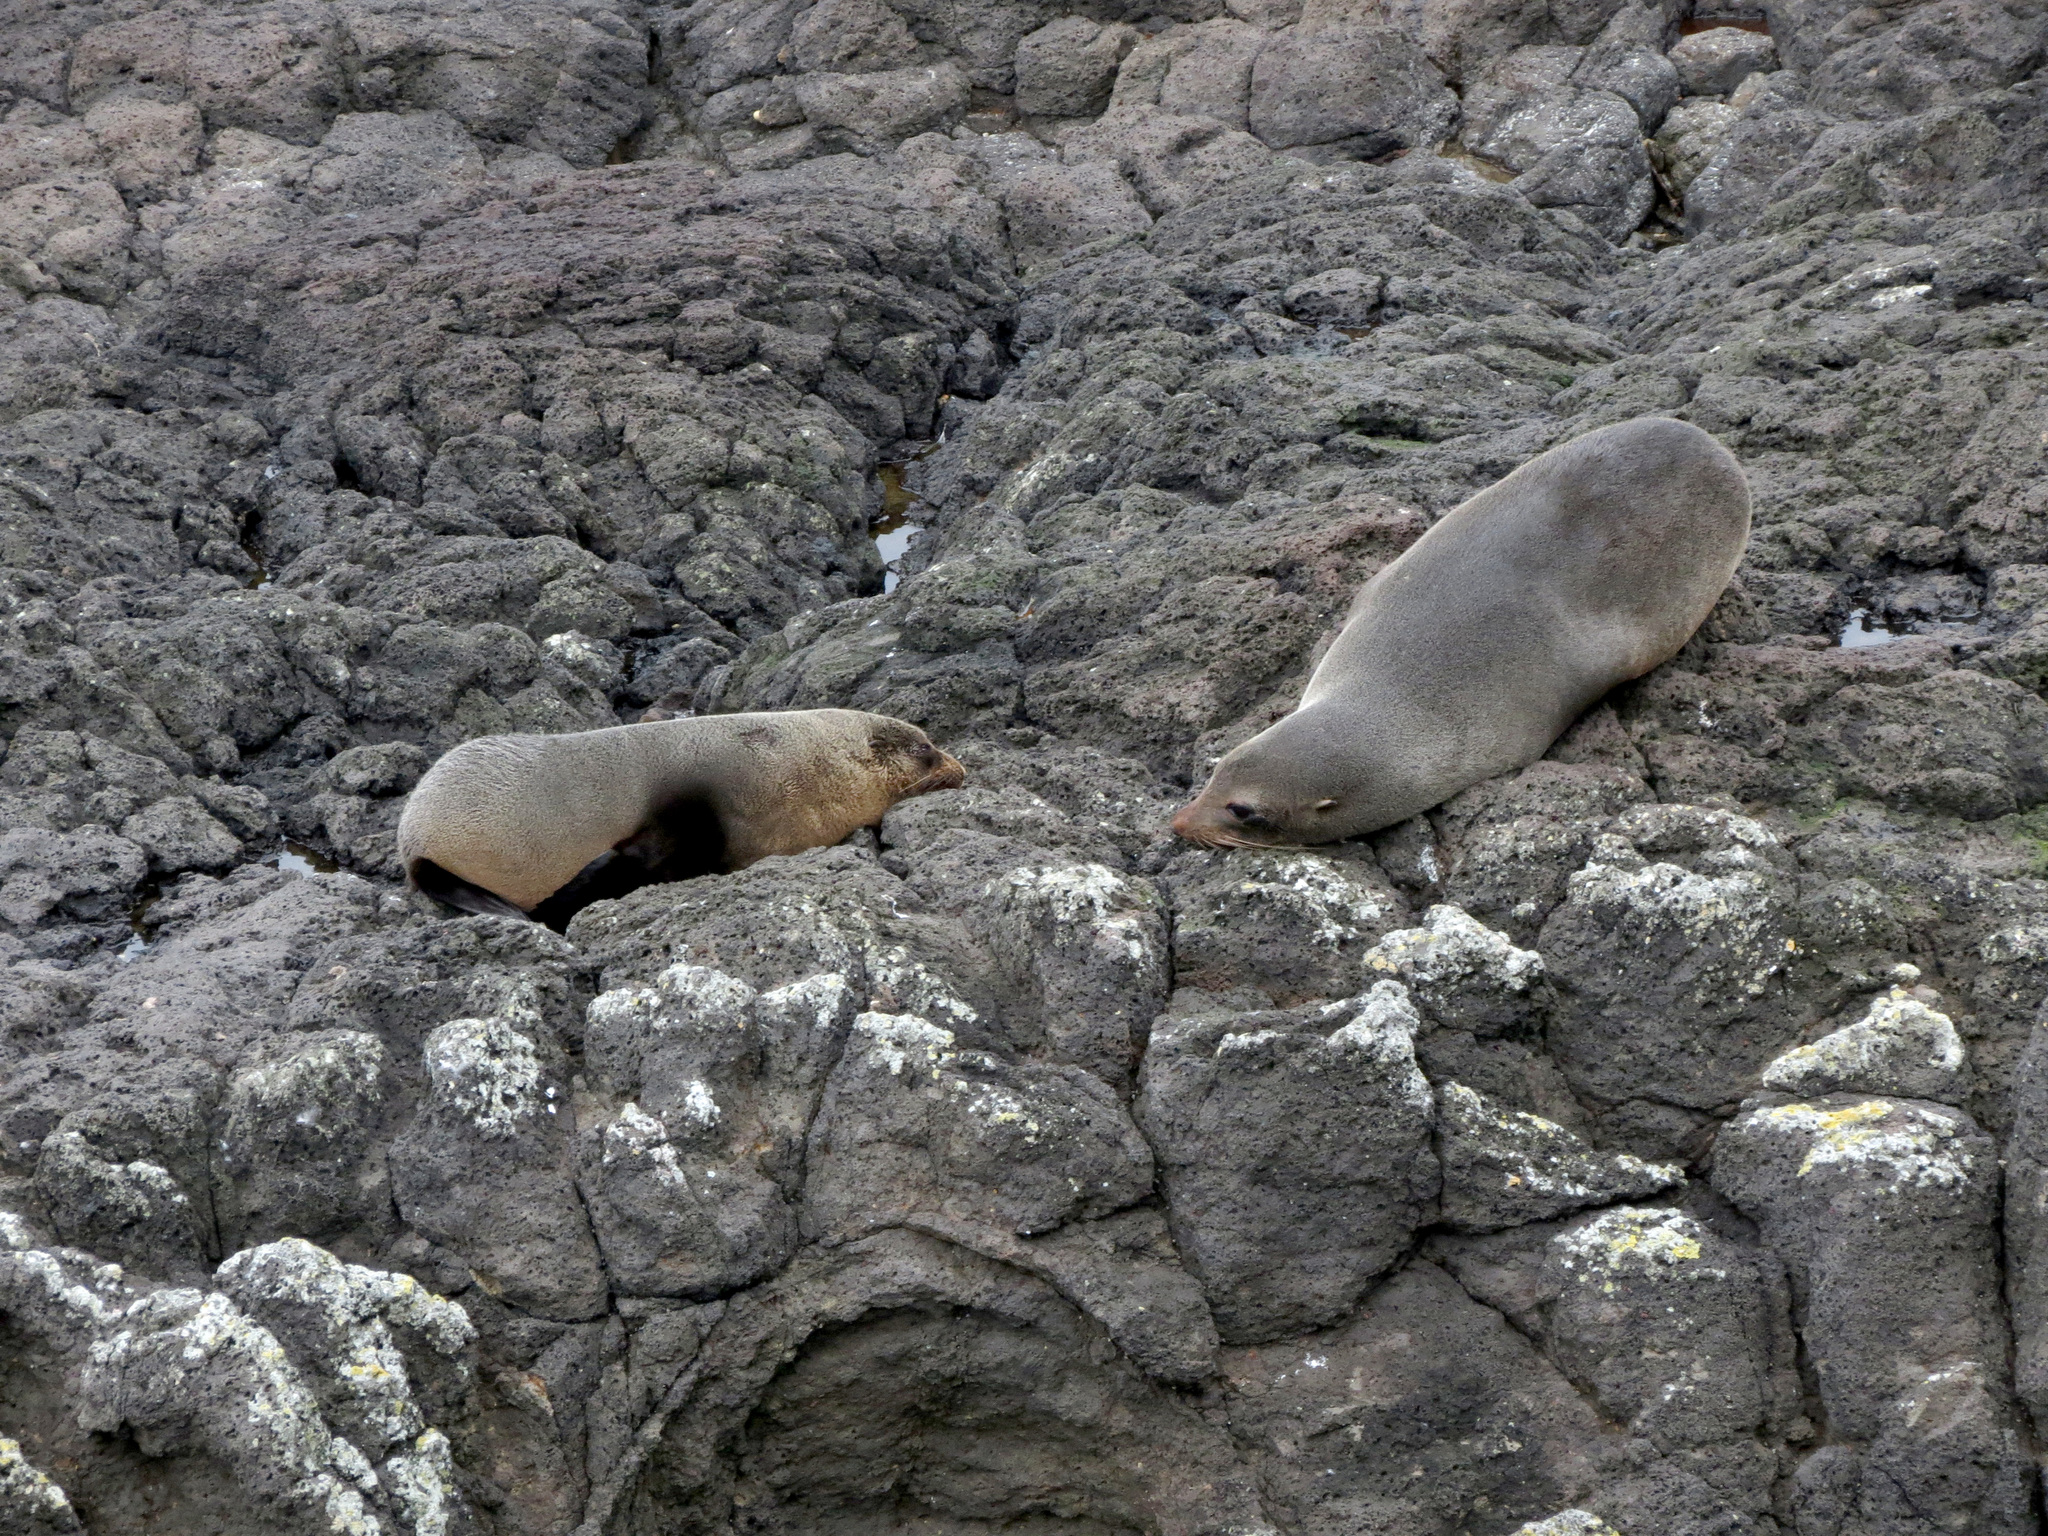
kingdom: Animalia
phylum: Chordata
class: Mammalia
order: Carnivora
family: Otariidae
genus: Arctocephalus
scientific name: Arctocephalus forsteri
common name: New zealand fur seal
